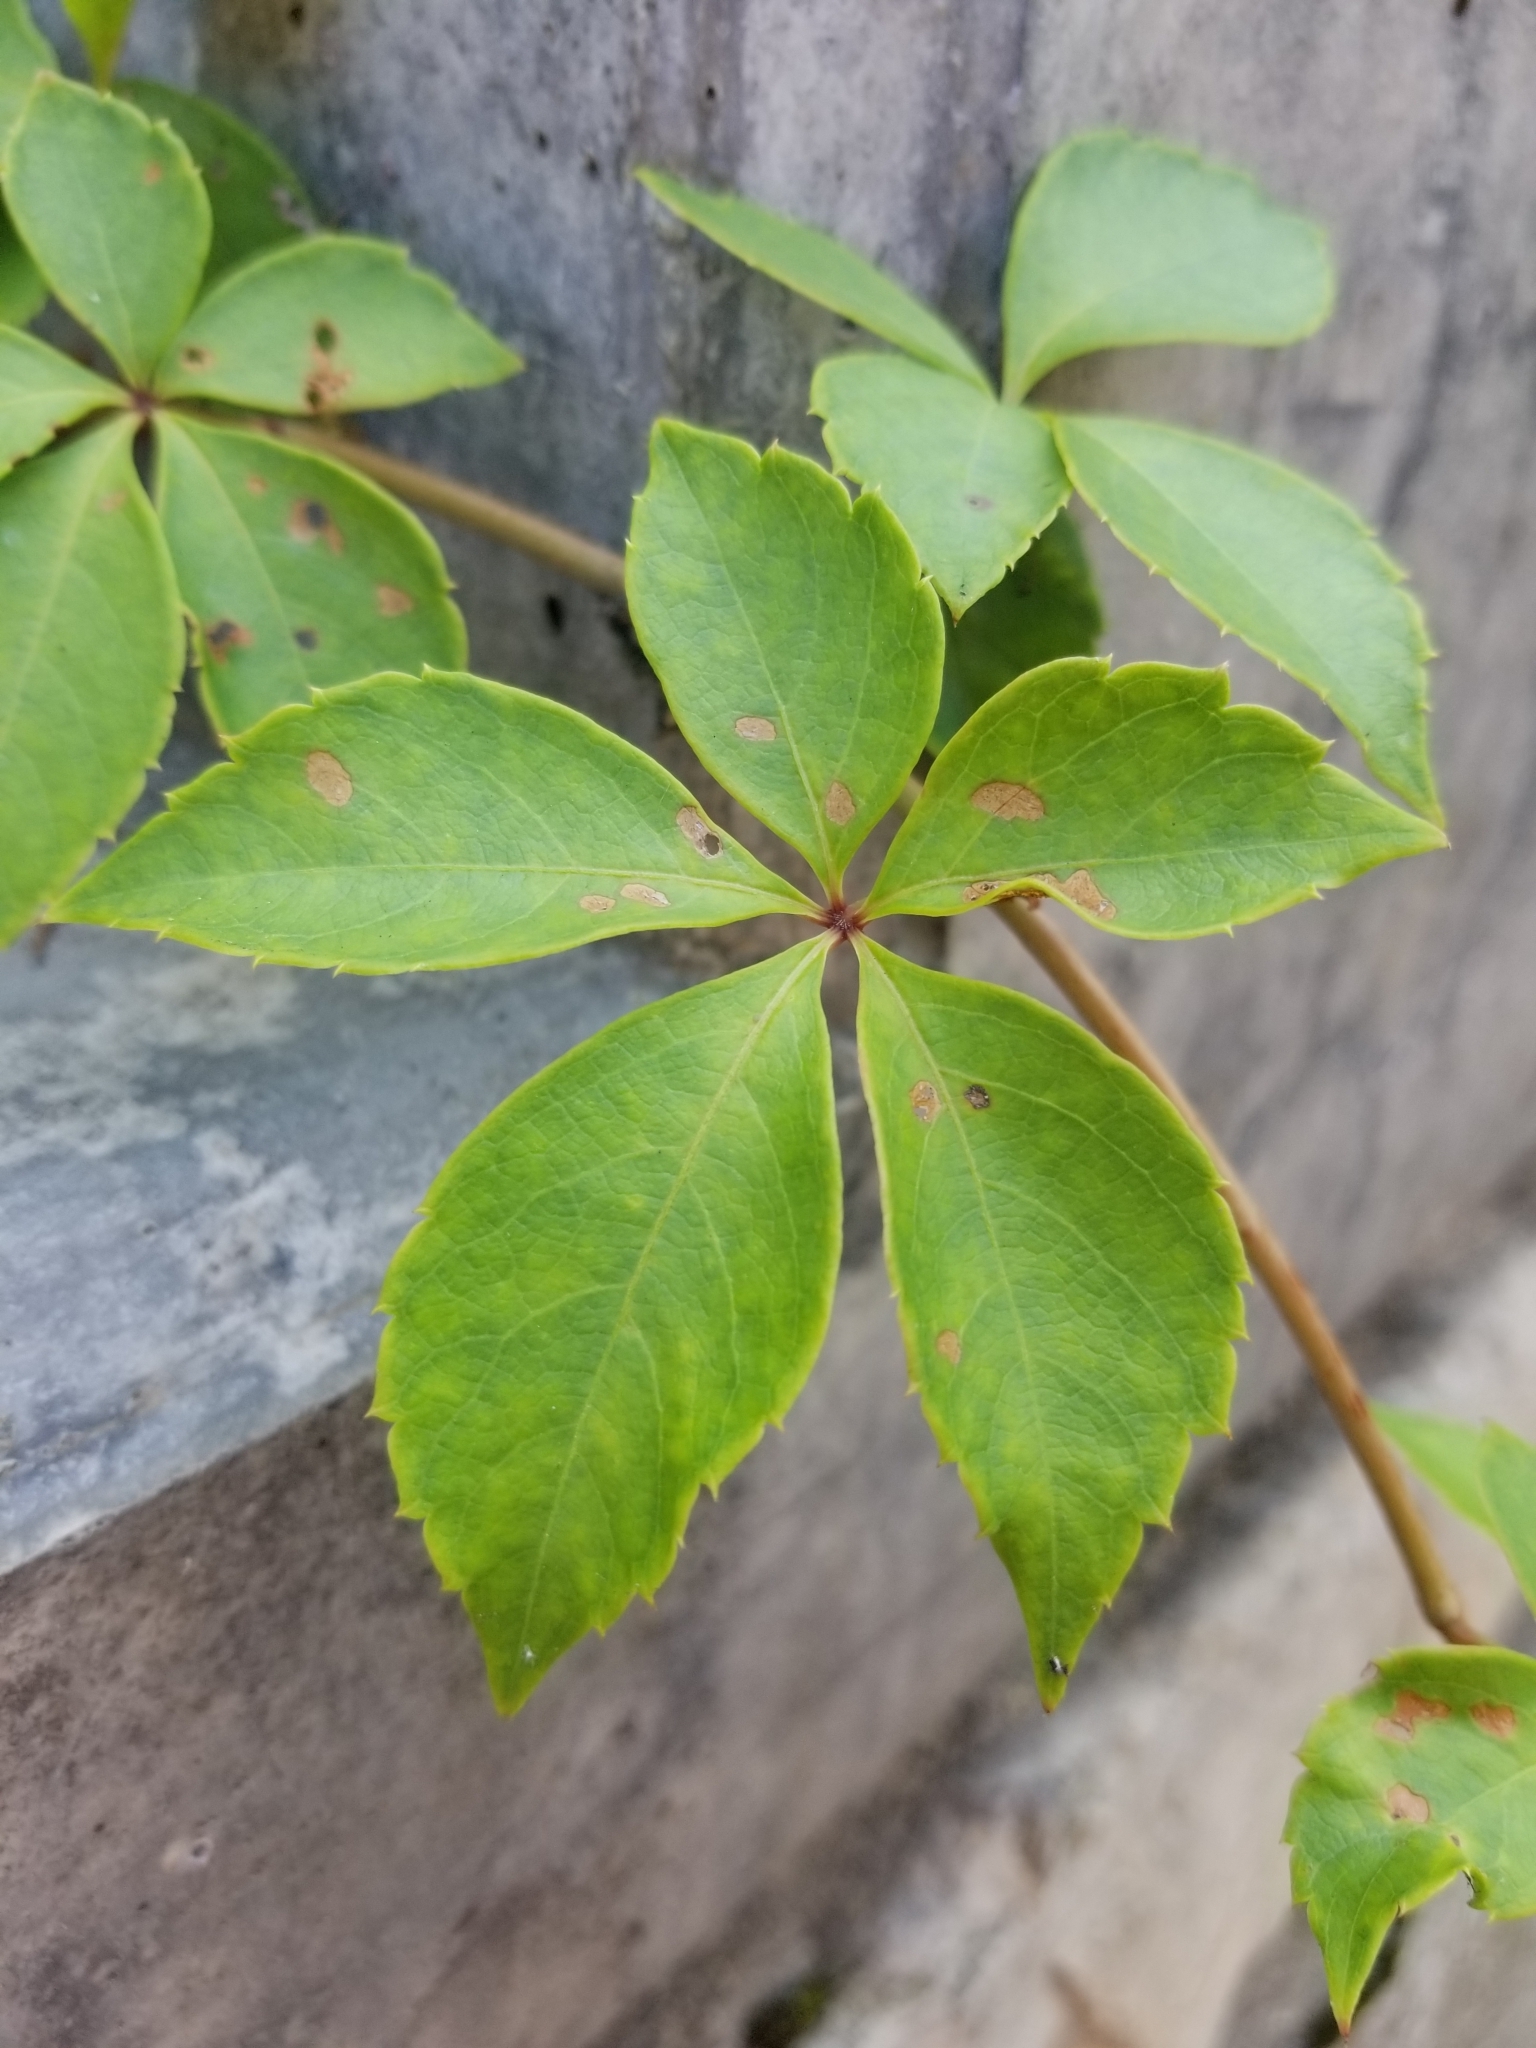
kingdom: Plantae
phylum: Tracheophyta
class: Magnoliopsida
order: Vitales
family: Vitaceae
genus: Parthenocissus
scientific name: Parthenocissus quinquefolia
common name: Virginia-creeper
